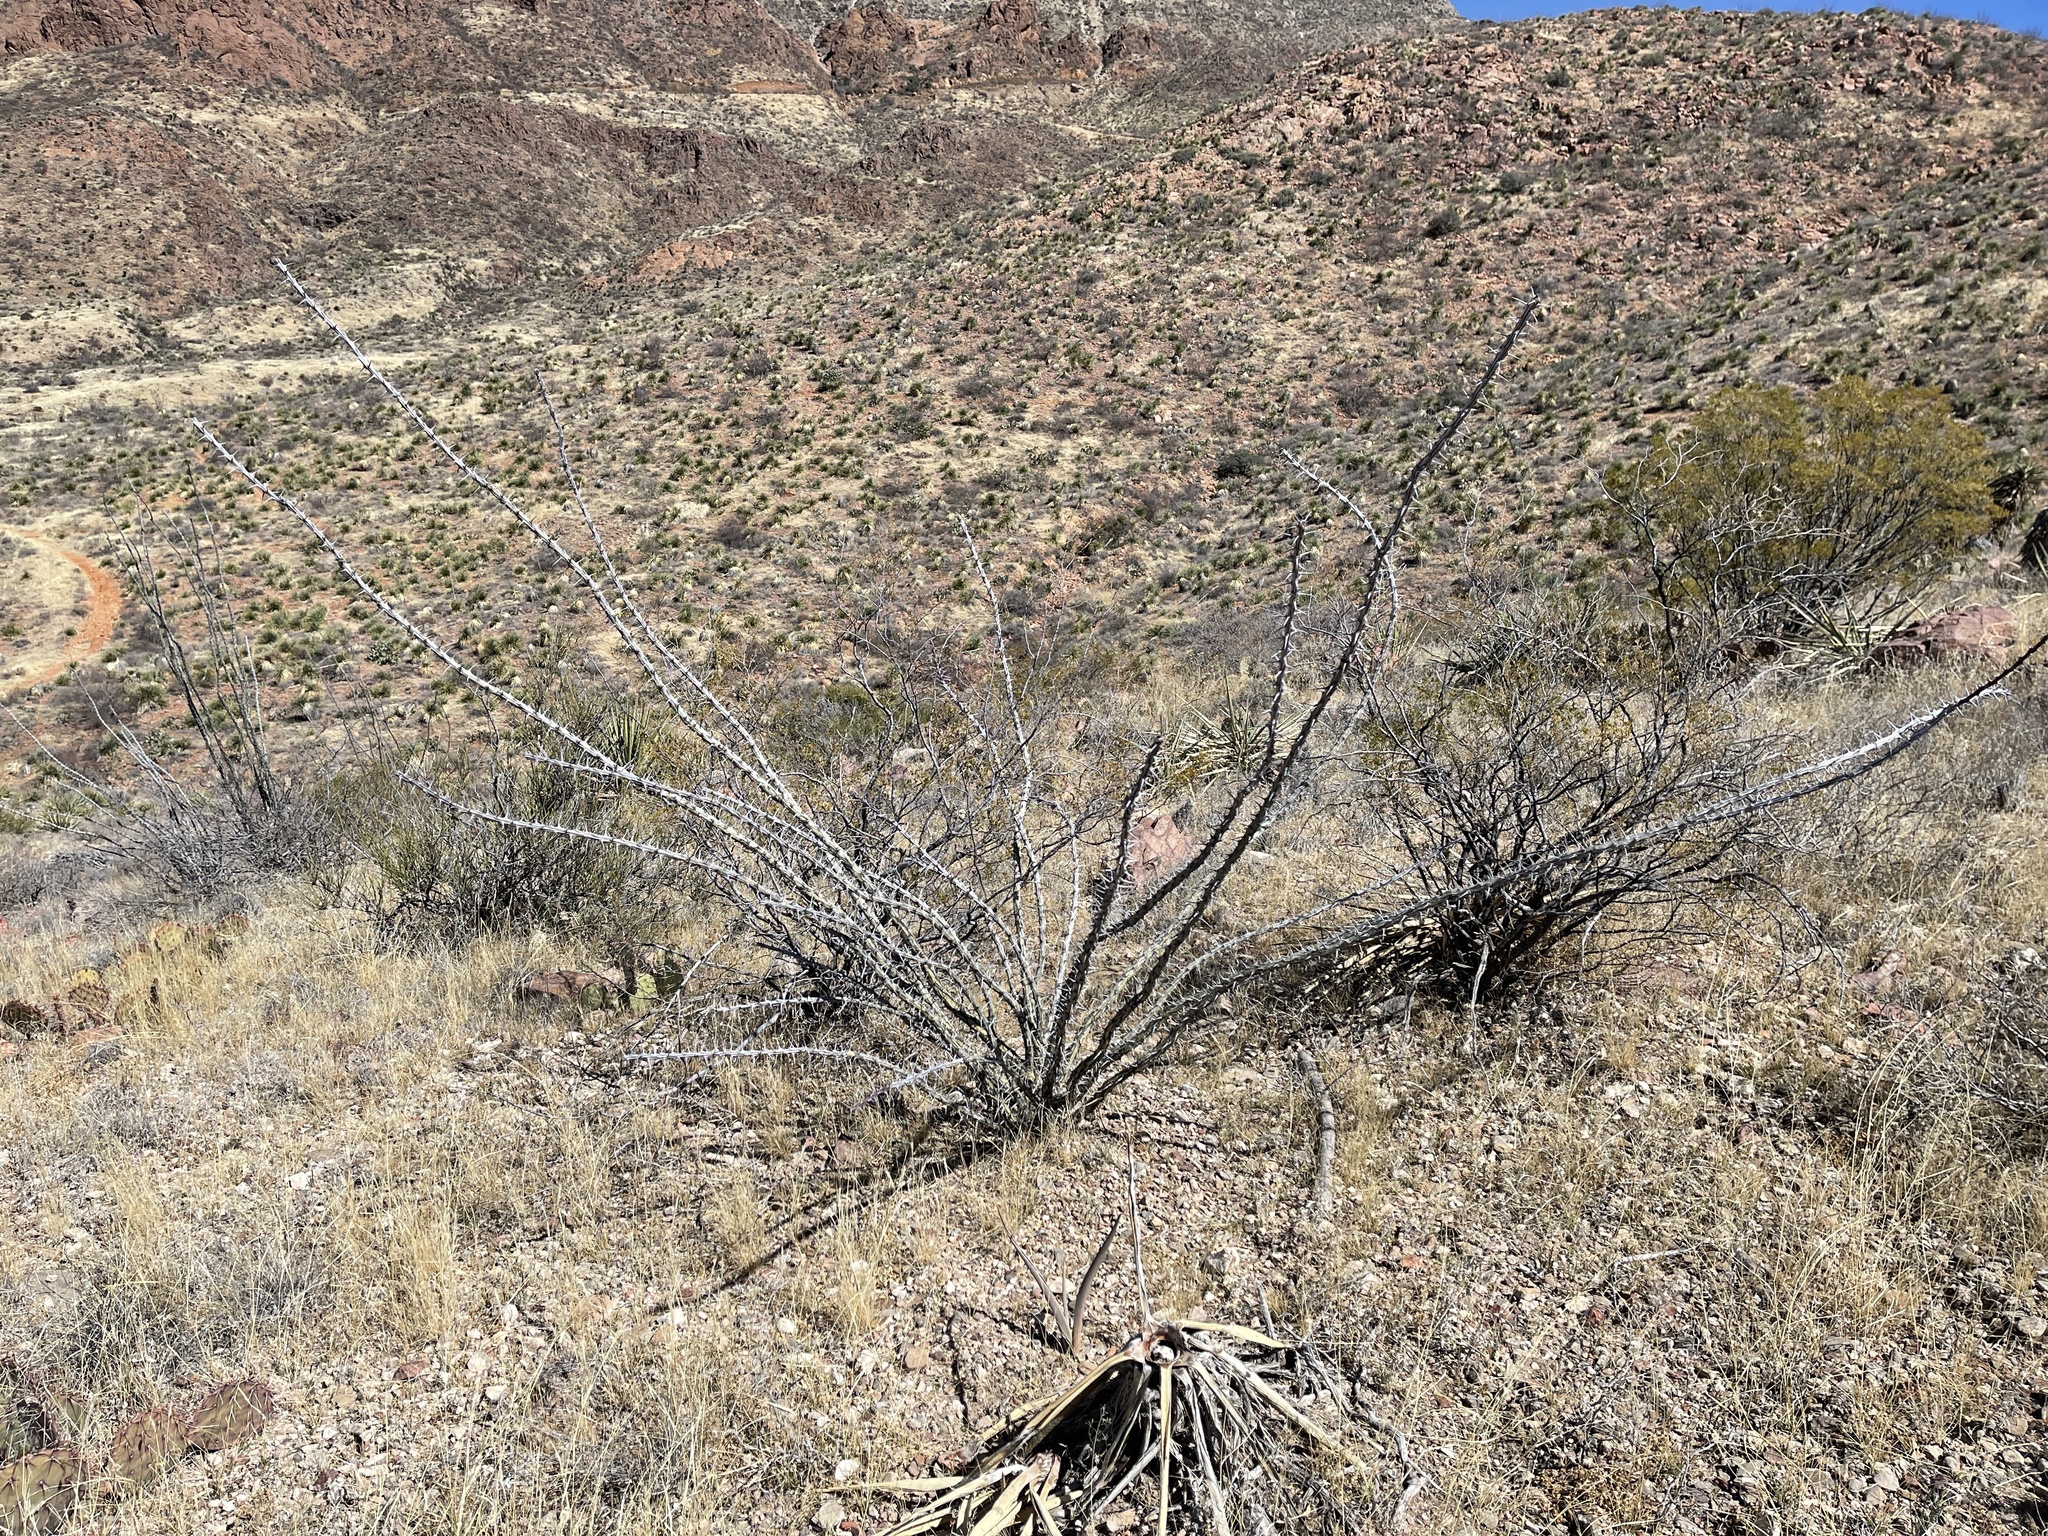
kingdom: Plantae
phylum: Tracheophyta
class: Magnoliopsida
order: Ericales
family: Fouquieriaceae
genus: Fouquieria
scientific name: Fouquieria splendens
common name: Vine-cactus
